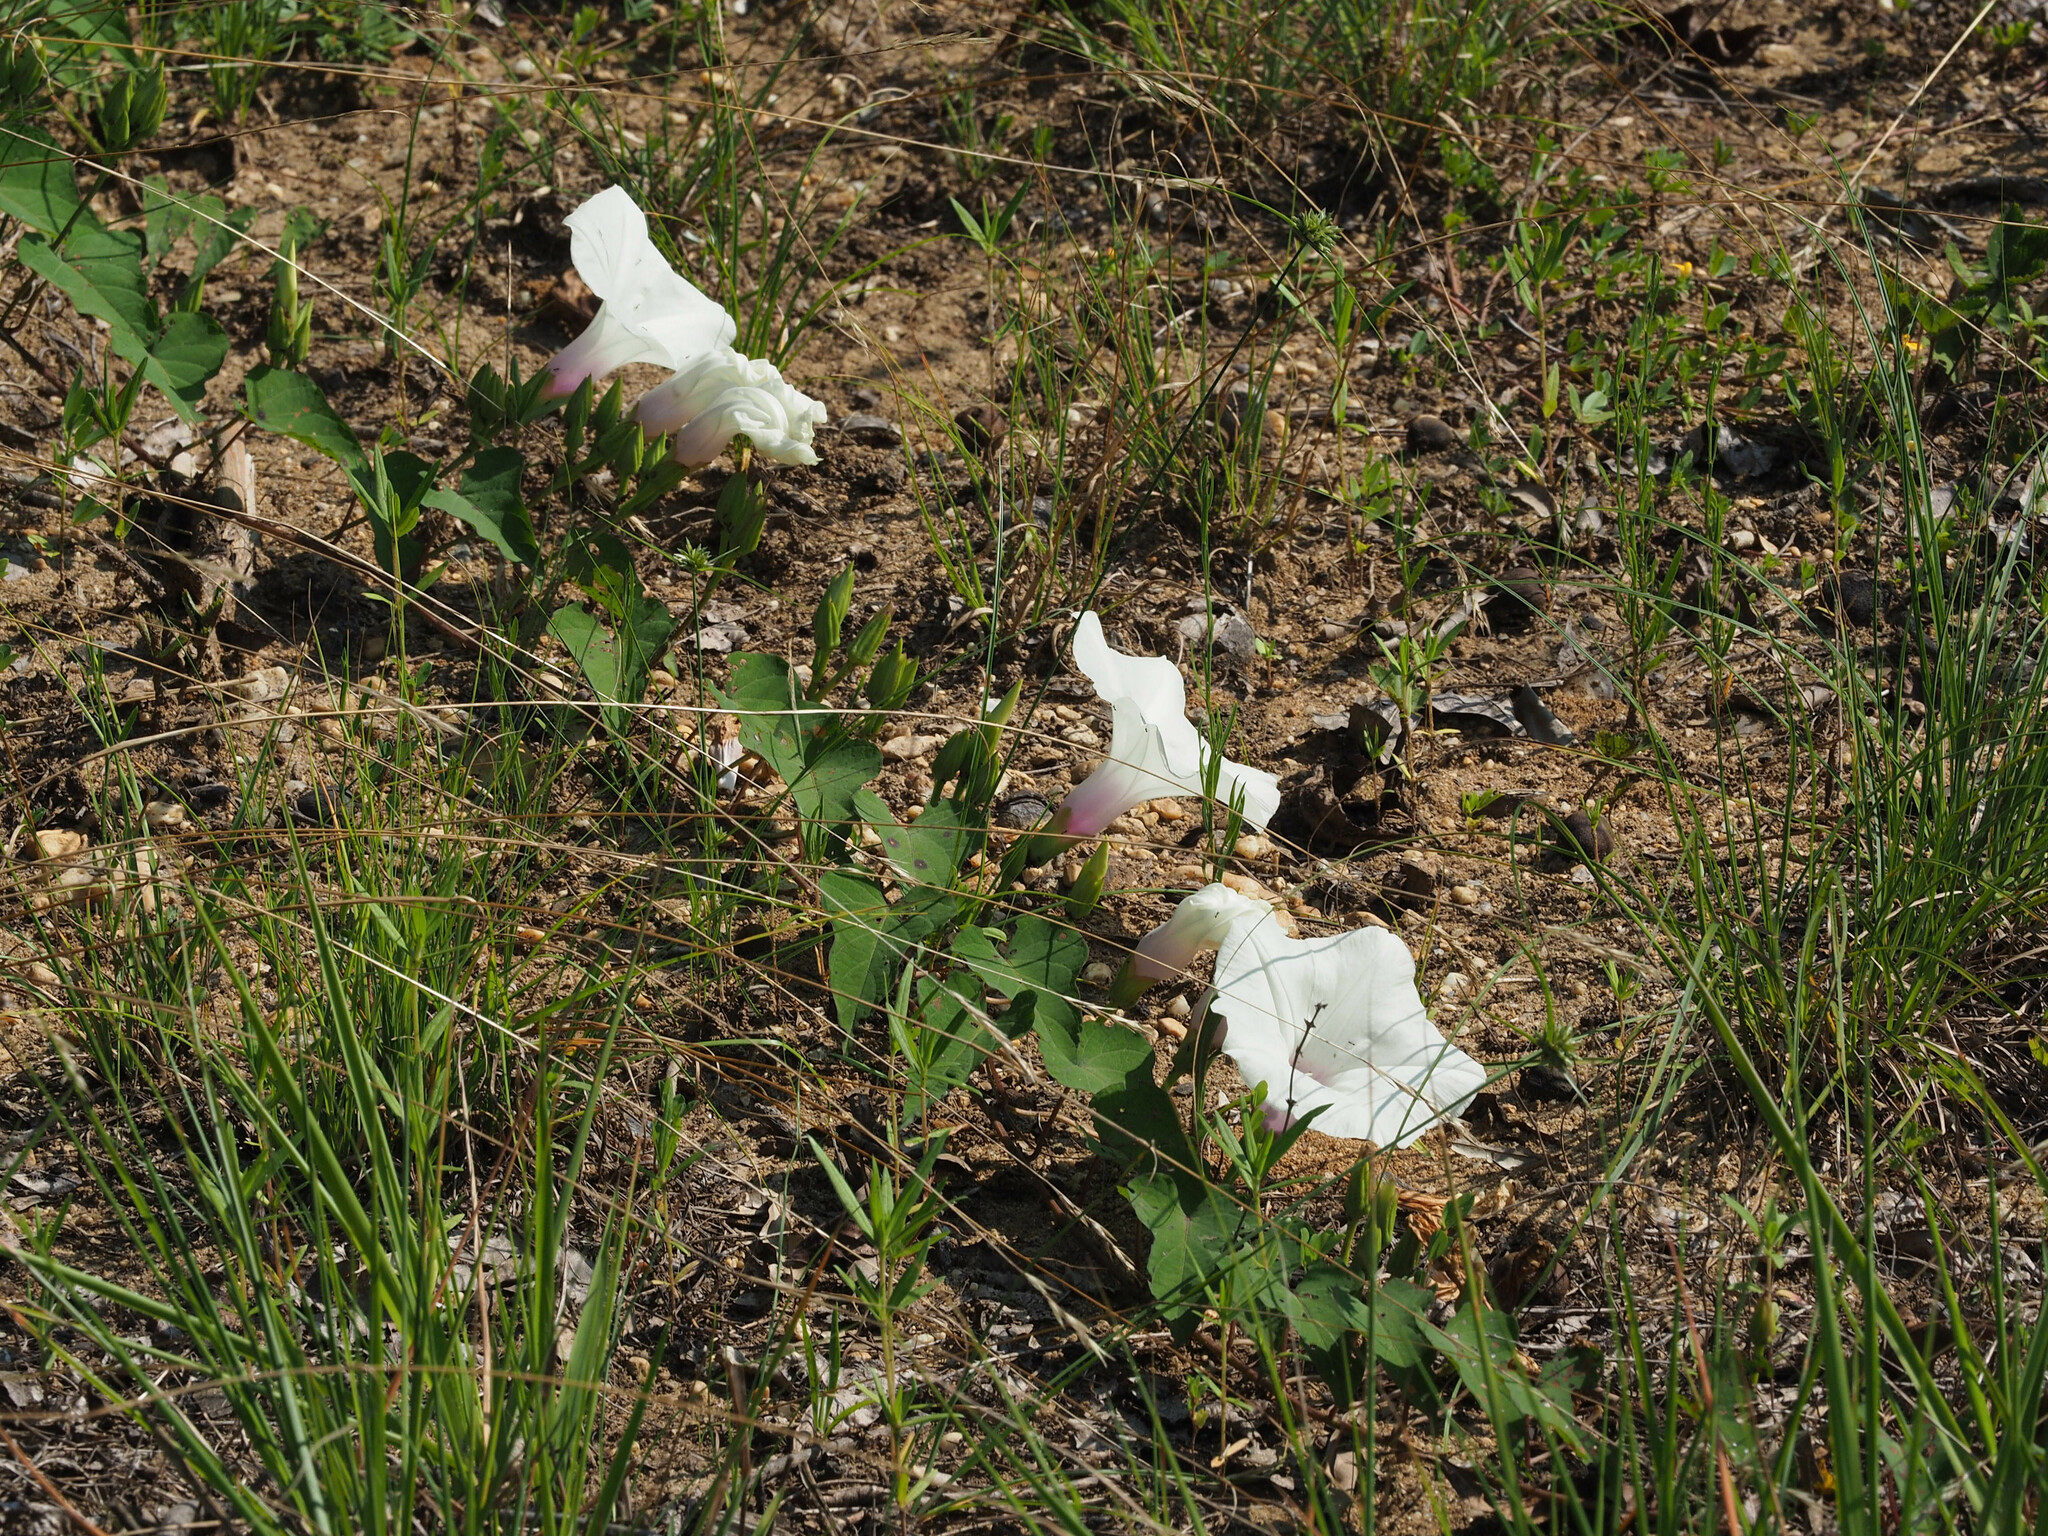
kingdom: Plantae
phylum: Tracheophyta
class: Magnoliopsida
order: Solanales
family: Convolvulaceae
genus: Ipomoea
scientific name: Ipomoea pandurata
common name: Man-of-the-earth
